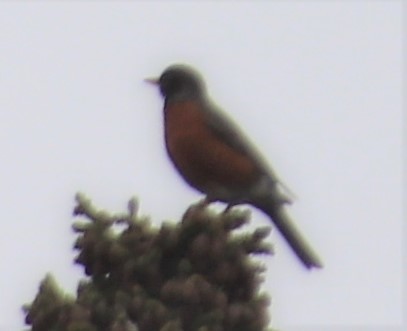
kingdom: Animalia
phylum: Chordata
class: Aves
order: Passeriformes
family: Turdidae
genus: Turdus
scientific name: Turdus migratorius
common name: American robin
